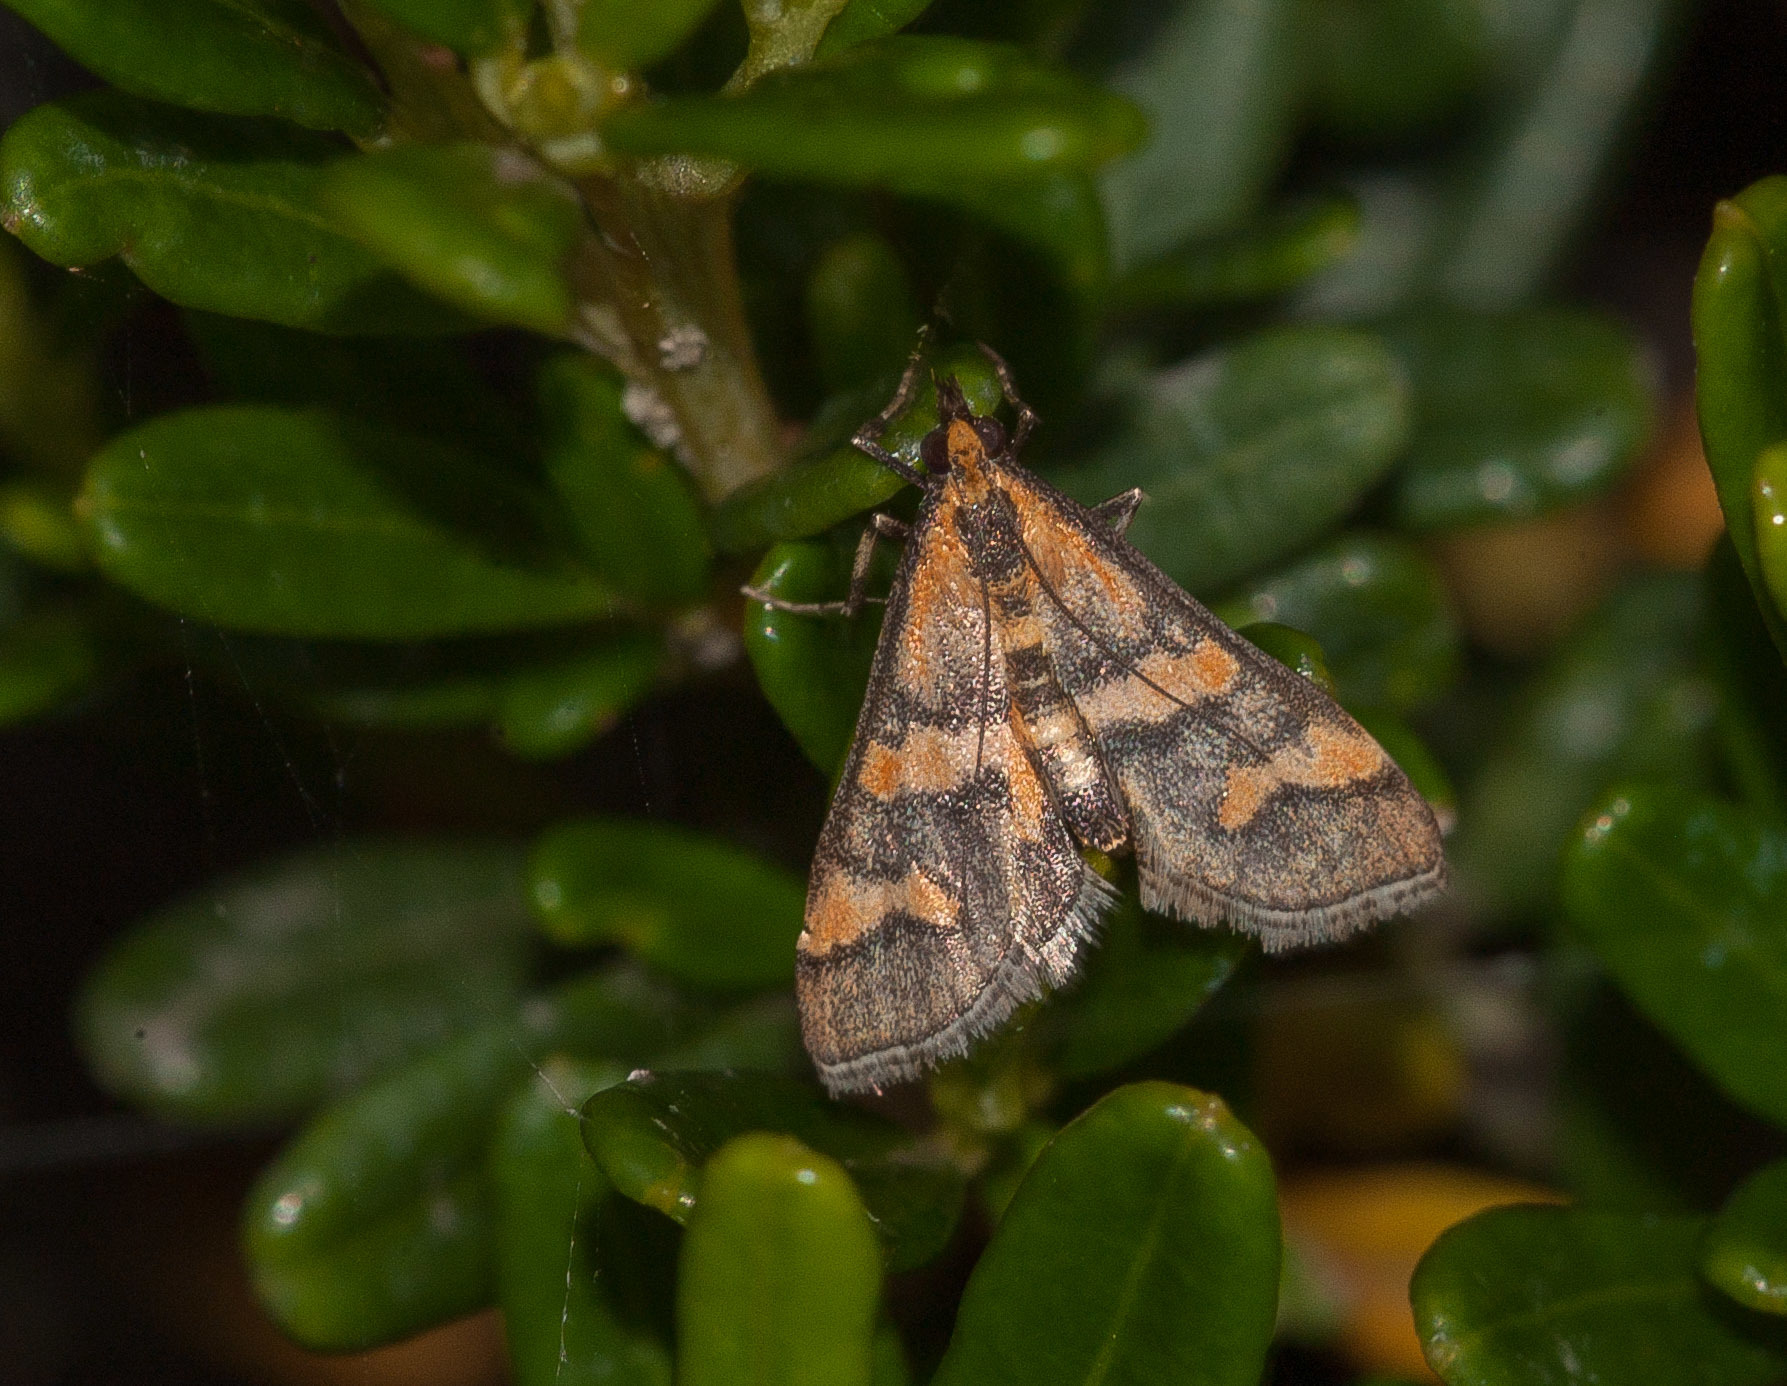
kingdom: Animalia
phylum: Arthropoda
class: Insecta
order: Lepidoptera
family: Crambidae
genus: Metallarcha
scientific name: Metallarcha diplochrysa
